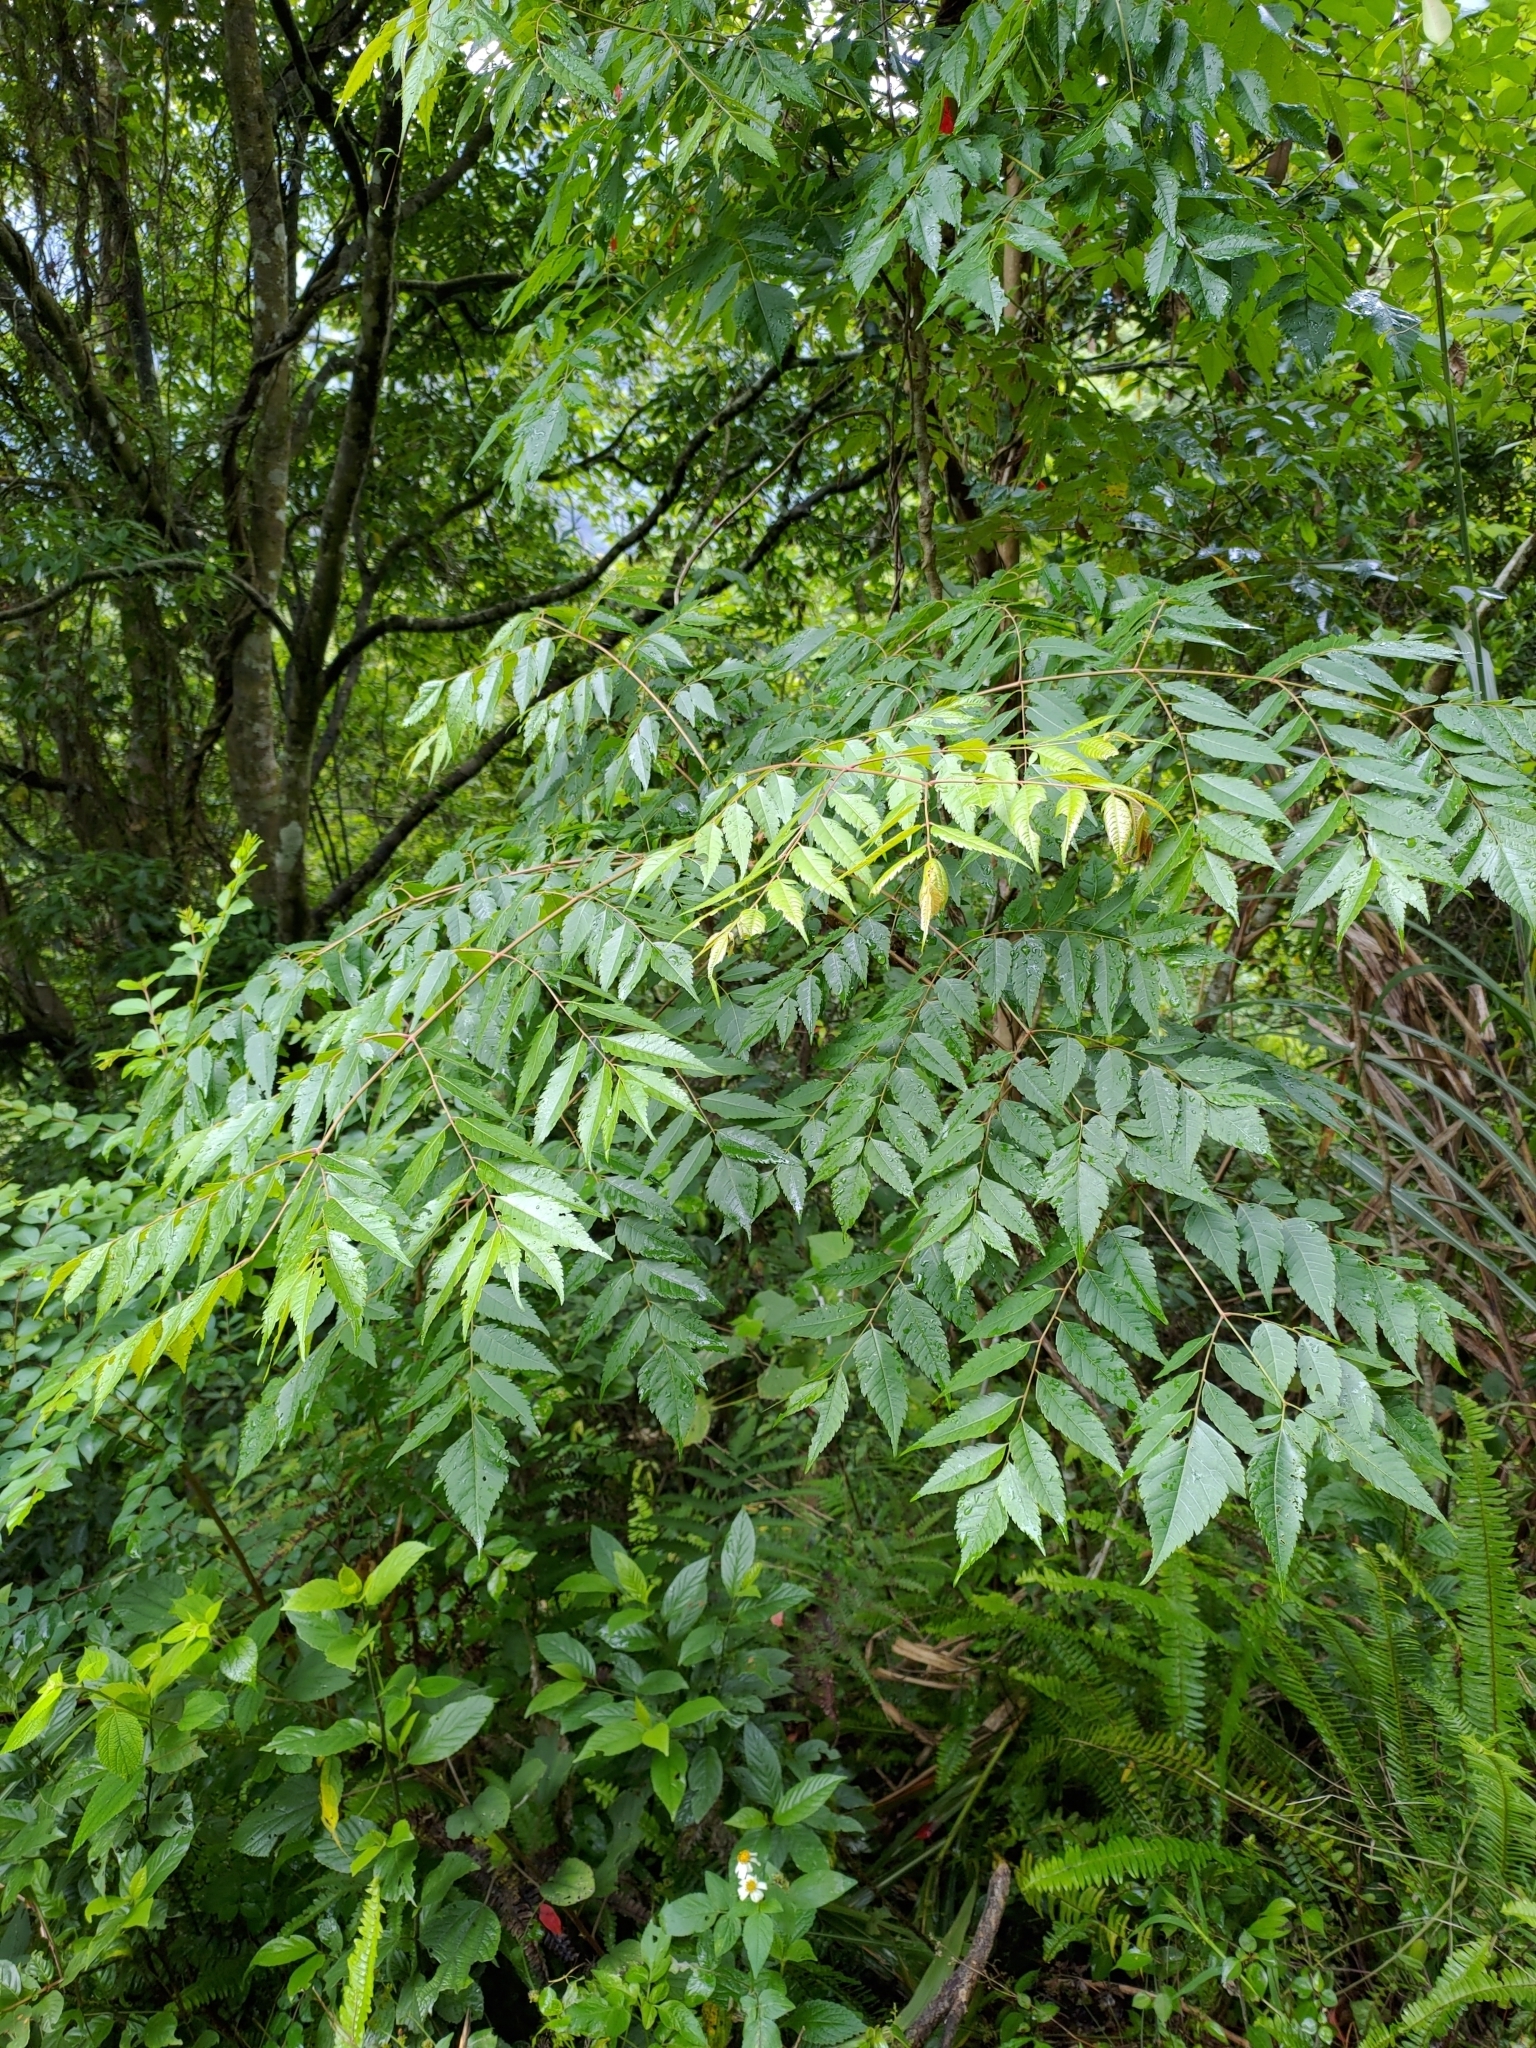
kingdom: Plantae
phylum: Tracheophyta
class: Magnoliopsida
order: Sapindales
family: Sapindaceae
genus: Koelreuteria
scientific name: Koelreuteria elegans
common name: Chinese flame tree
